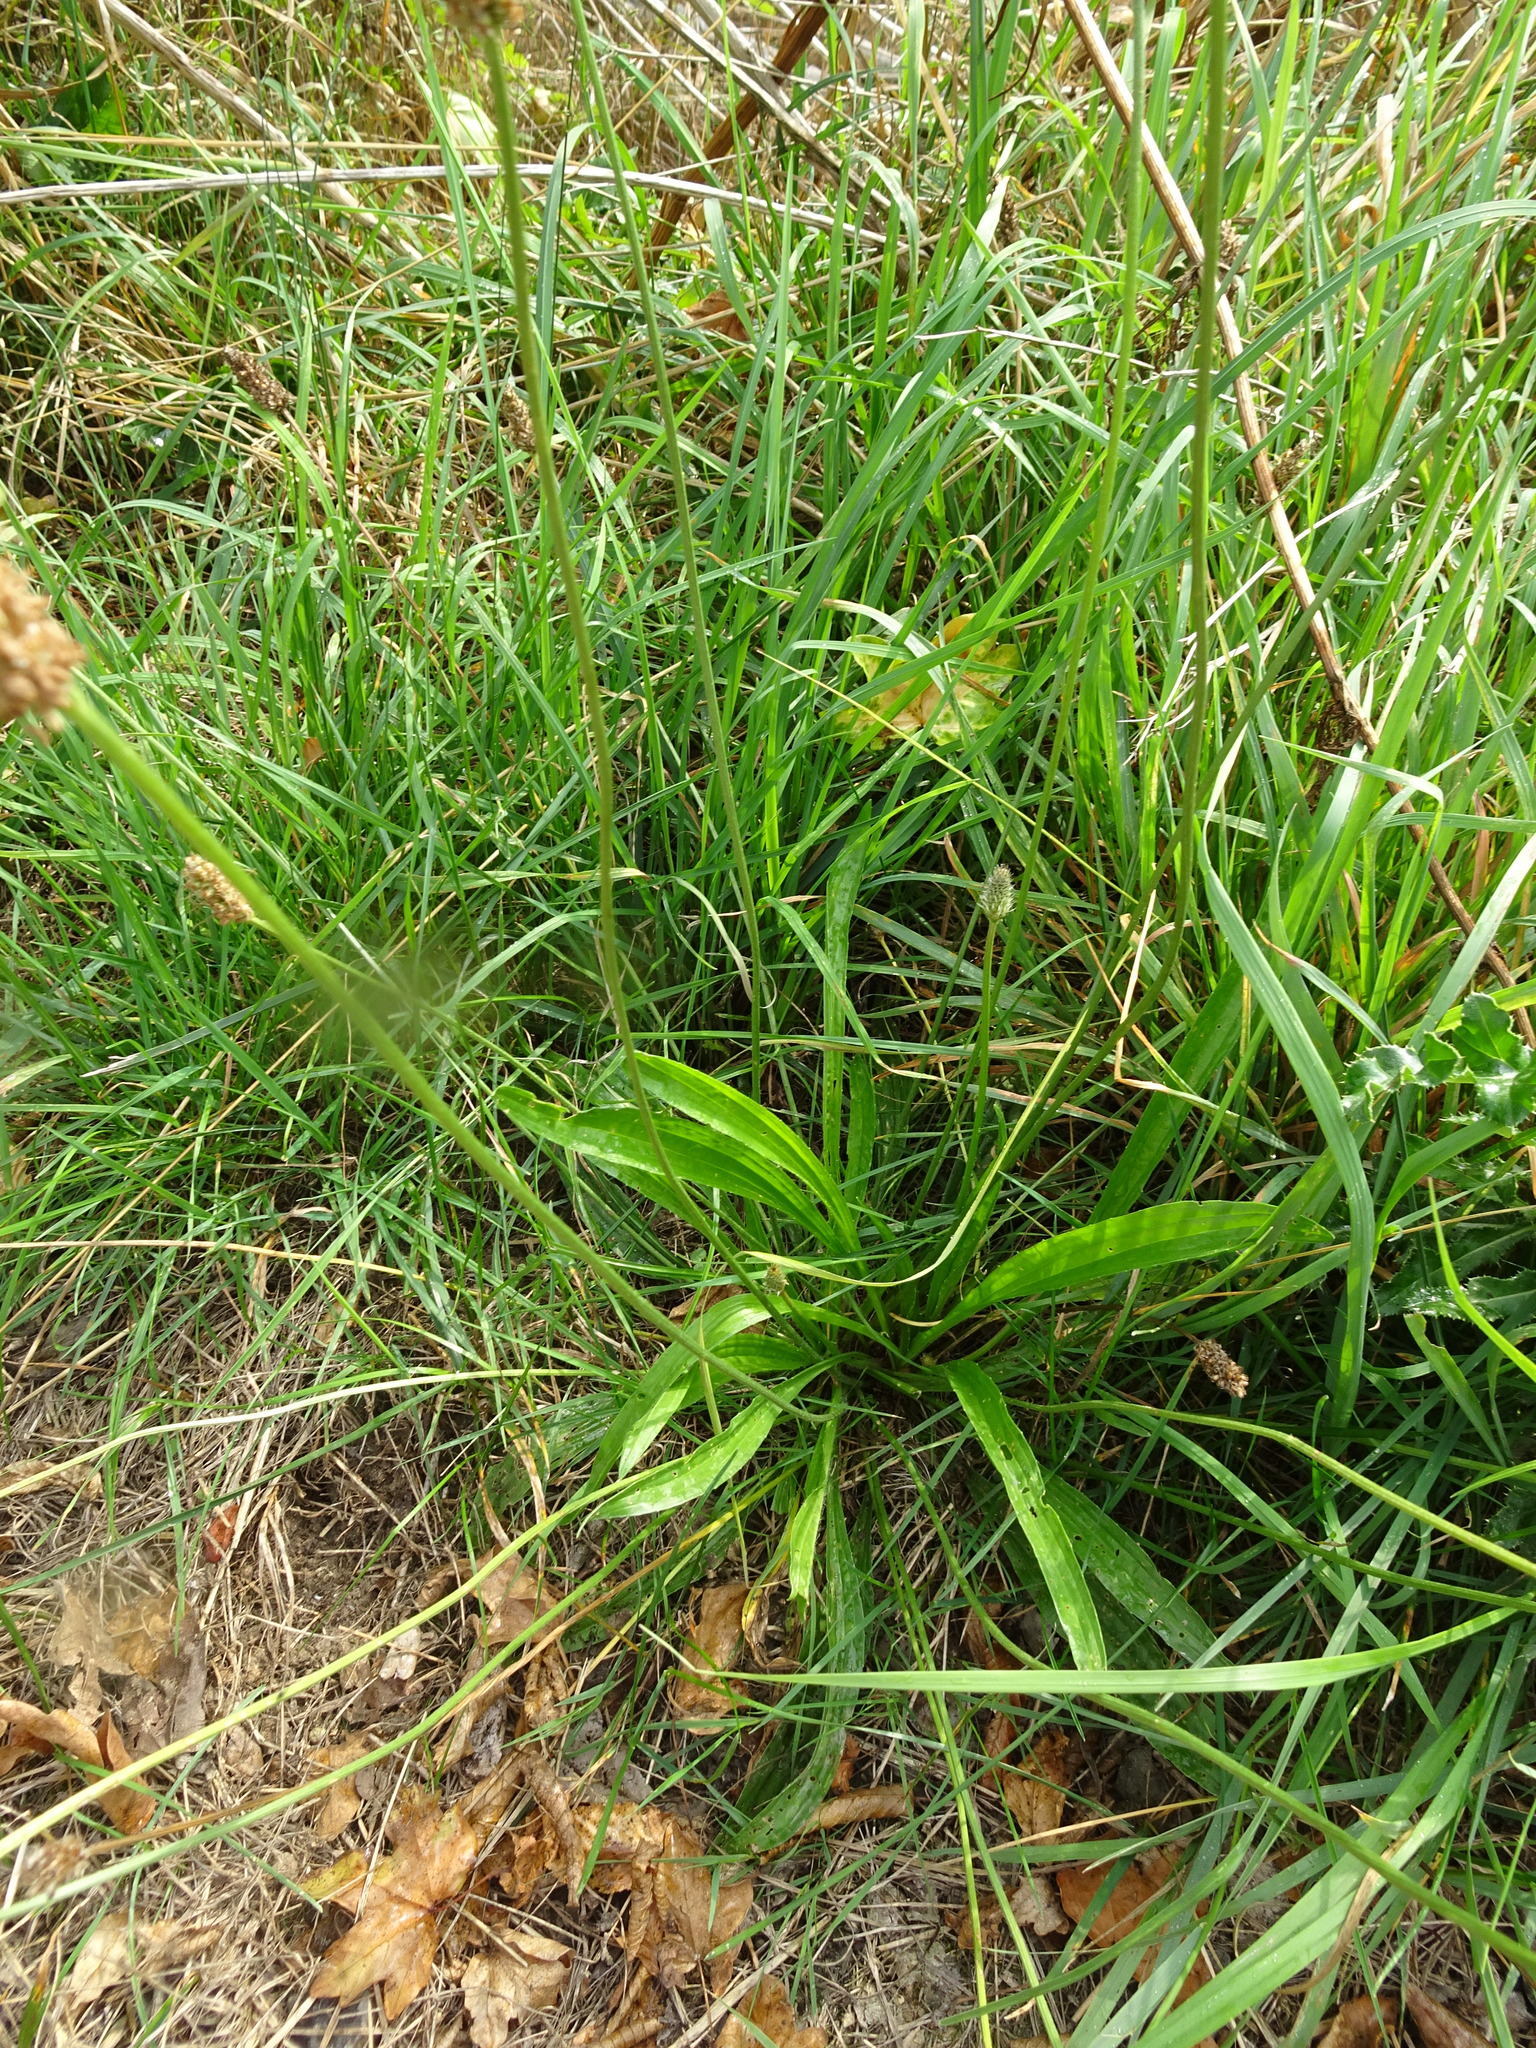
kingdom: Plantae
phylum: Tracheophyta
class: Magnoliopsida
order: Lamiales
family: Plantaginaceae
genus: Plantago
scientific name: Plantago lanceolata
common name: Ribwort plantain
